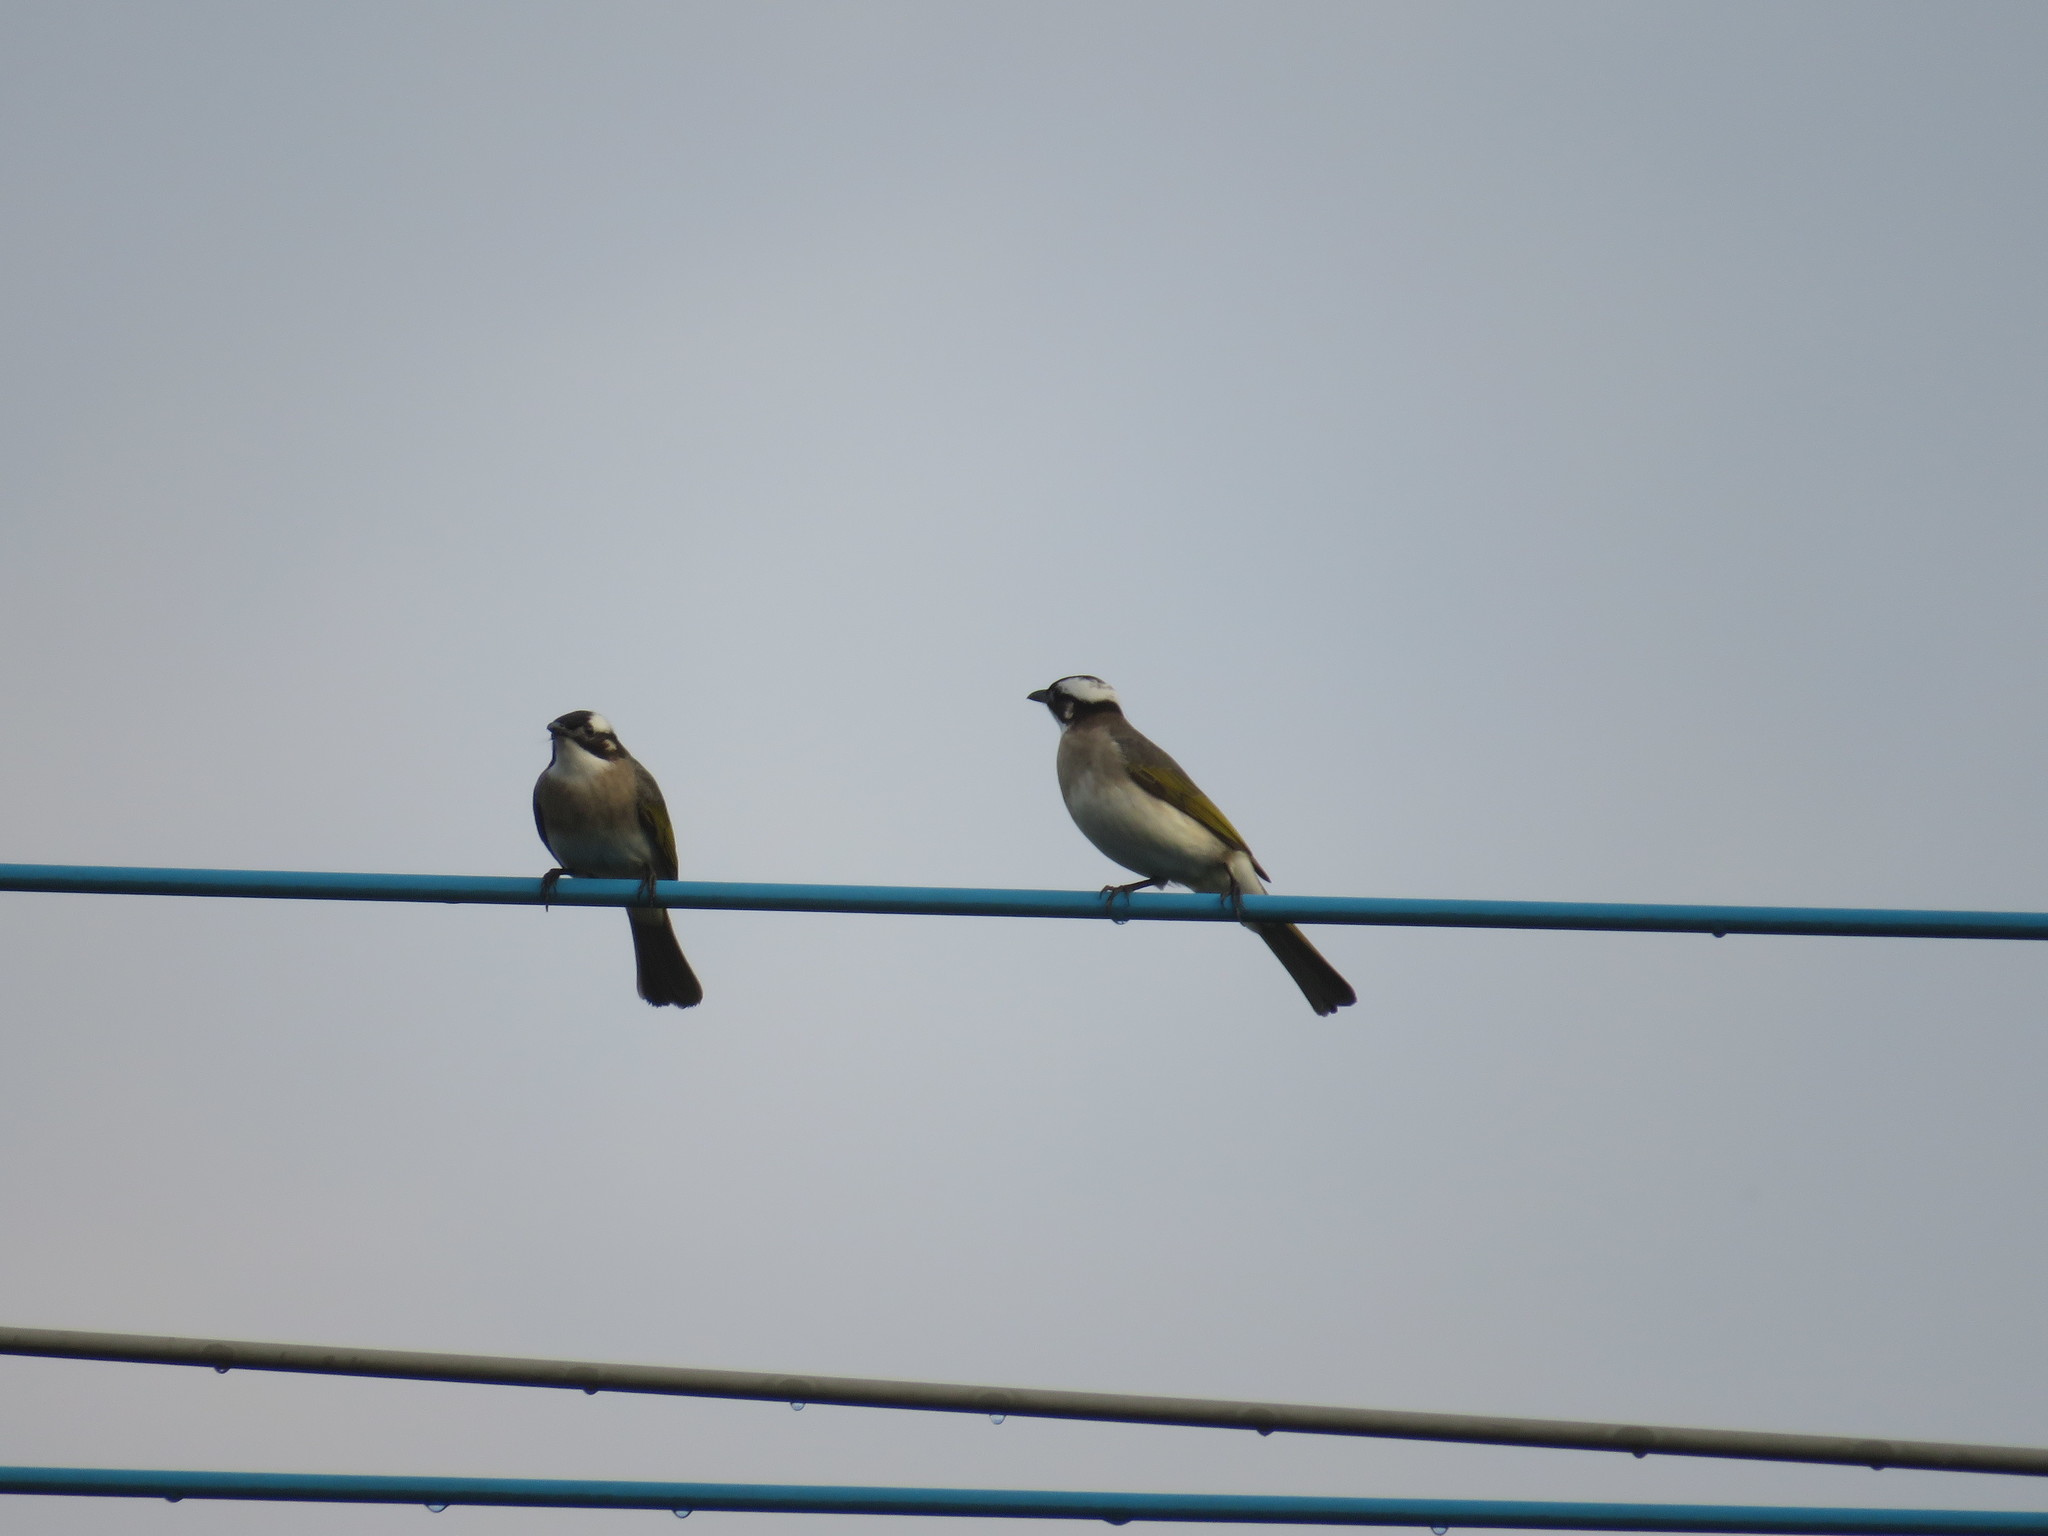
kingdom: Animalia
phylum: Chordata
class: Aves
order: Passeriformes
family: Pycnonotidae
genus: Pycnonotus
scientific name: Pycnonotus sinensis
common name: Light-vented bulbul
